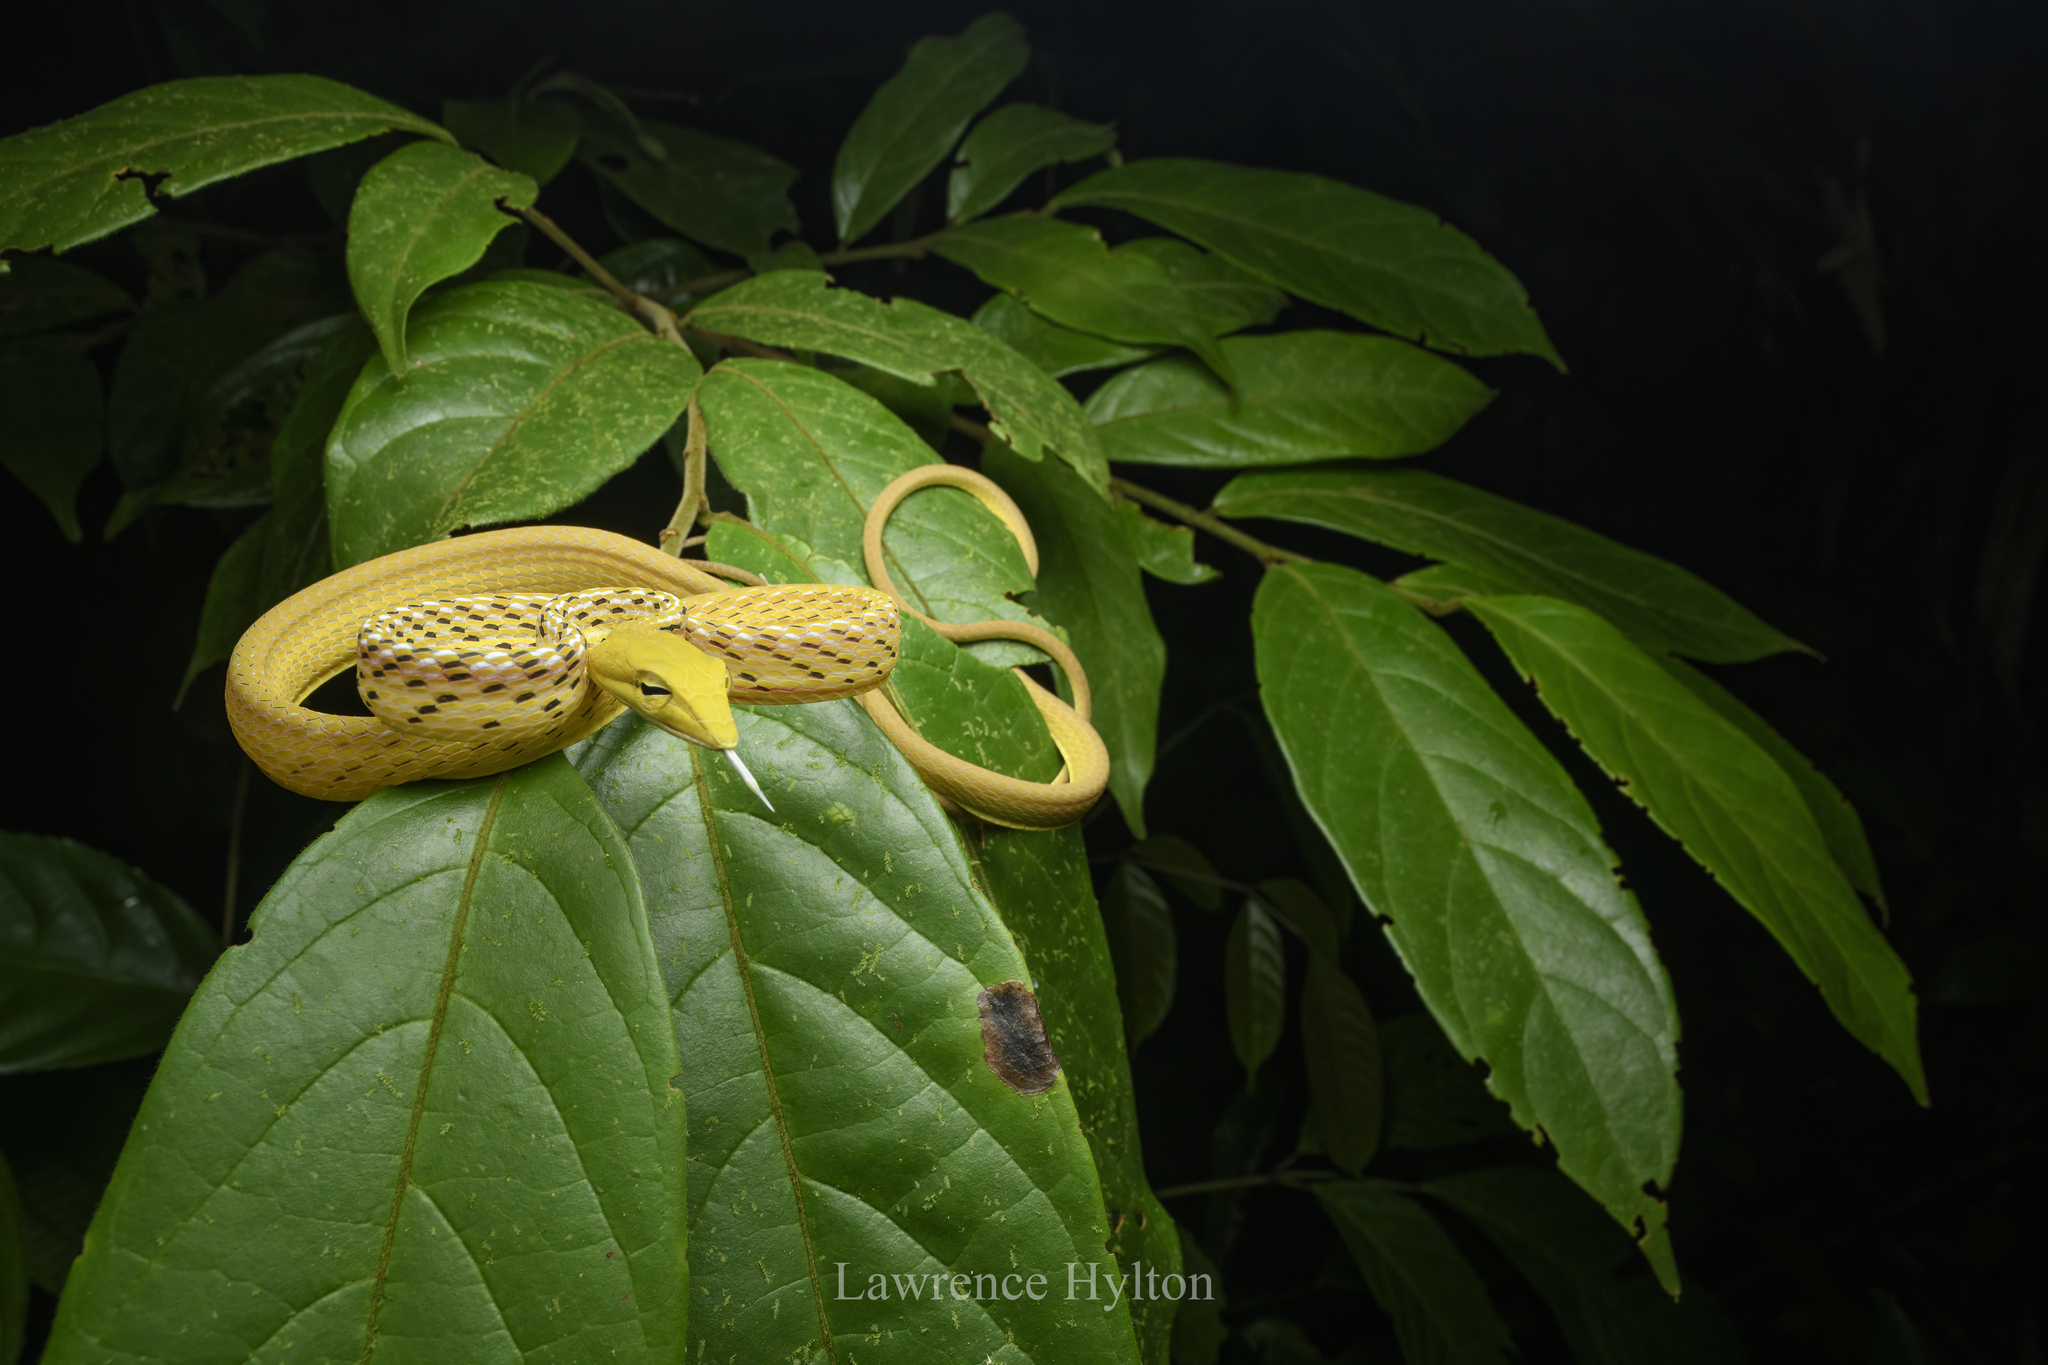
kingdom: Animalia
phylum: Chordata
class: Squamata
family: Colubridae
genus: Ahaetulla
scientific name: Ahaetulla prasina
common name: Oriental whip snake
